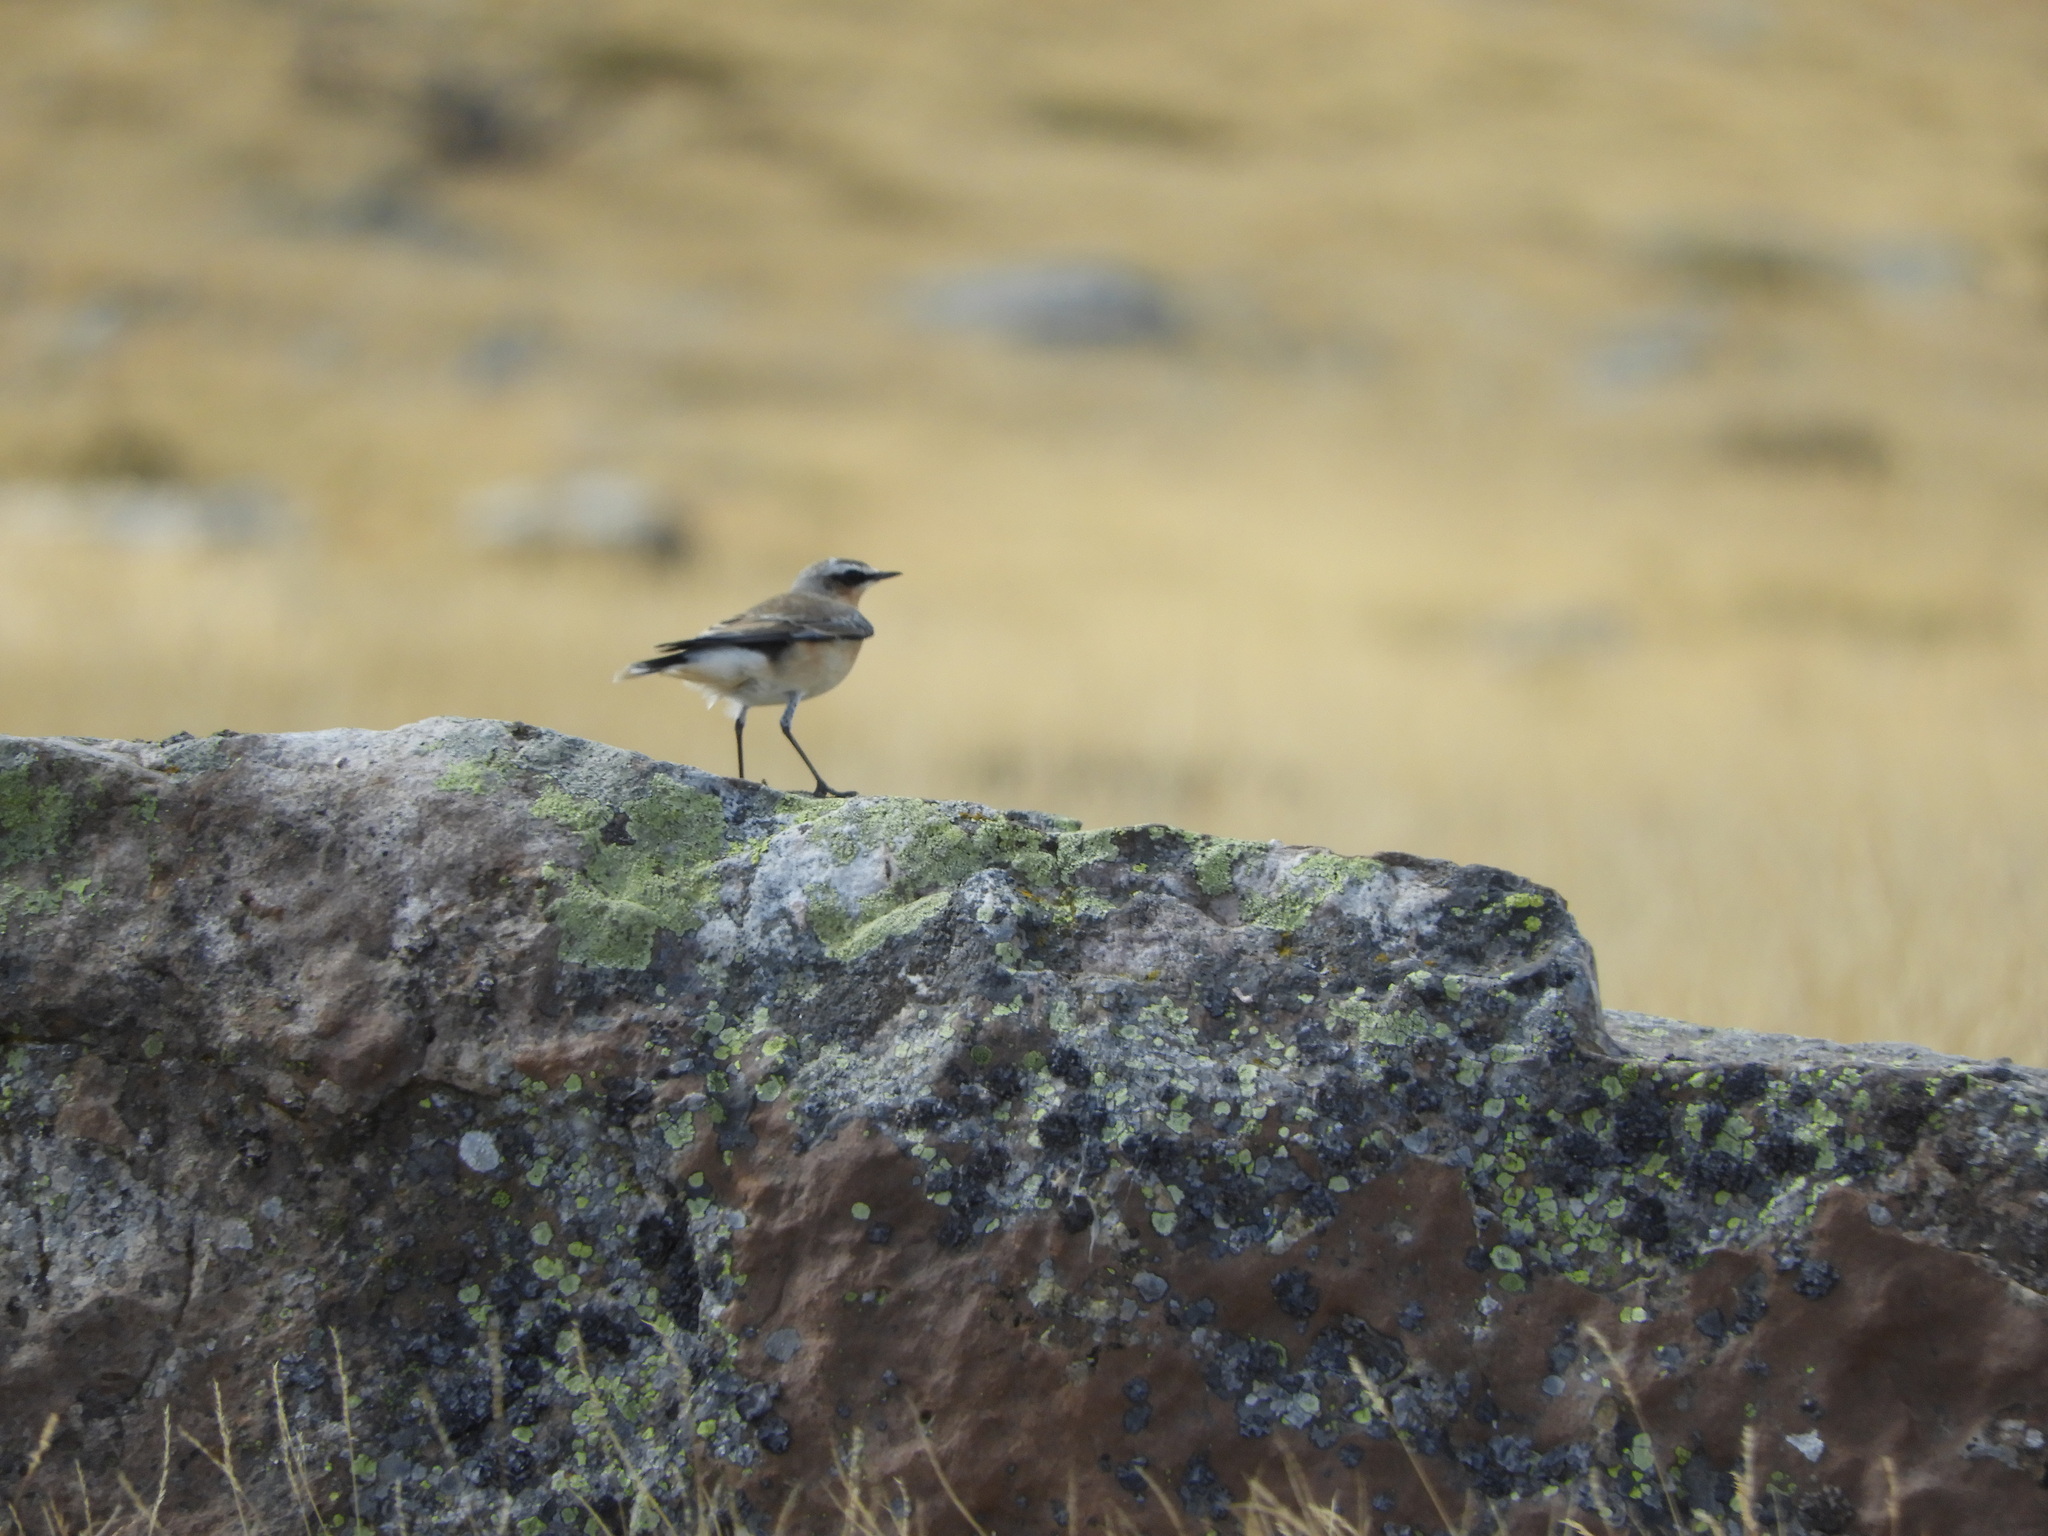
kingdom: Animalia
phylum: Chordata
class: Aves
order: Passeriformes
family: Muscicapidae
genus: Oenanthe
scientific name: Oenanthe oenanthe
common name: Northern wheatear
